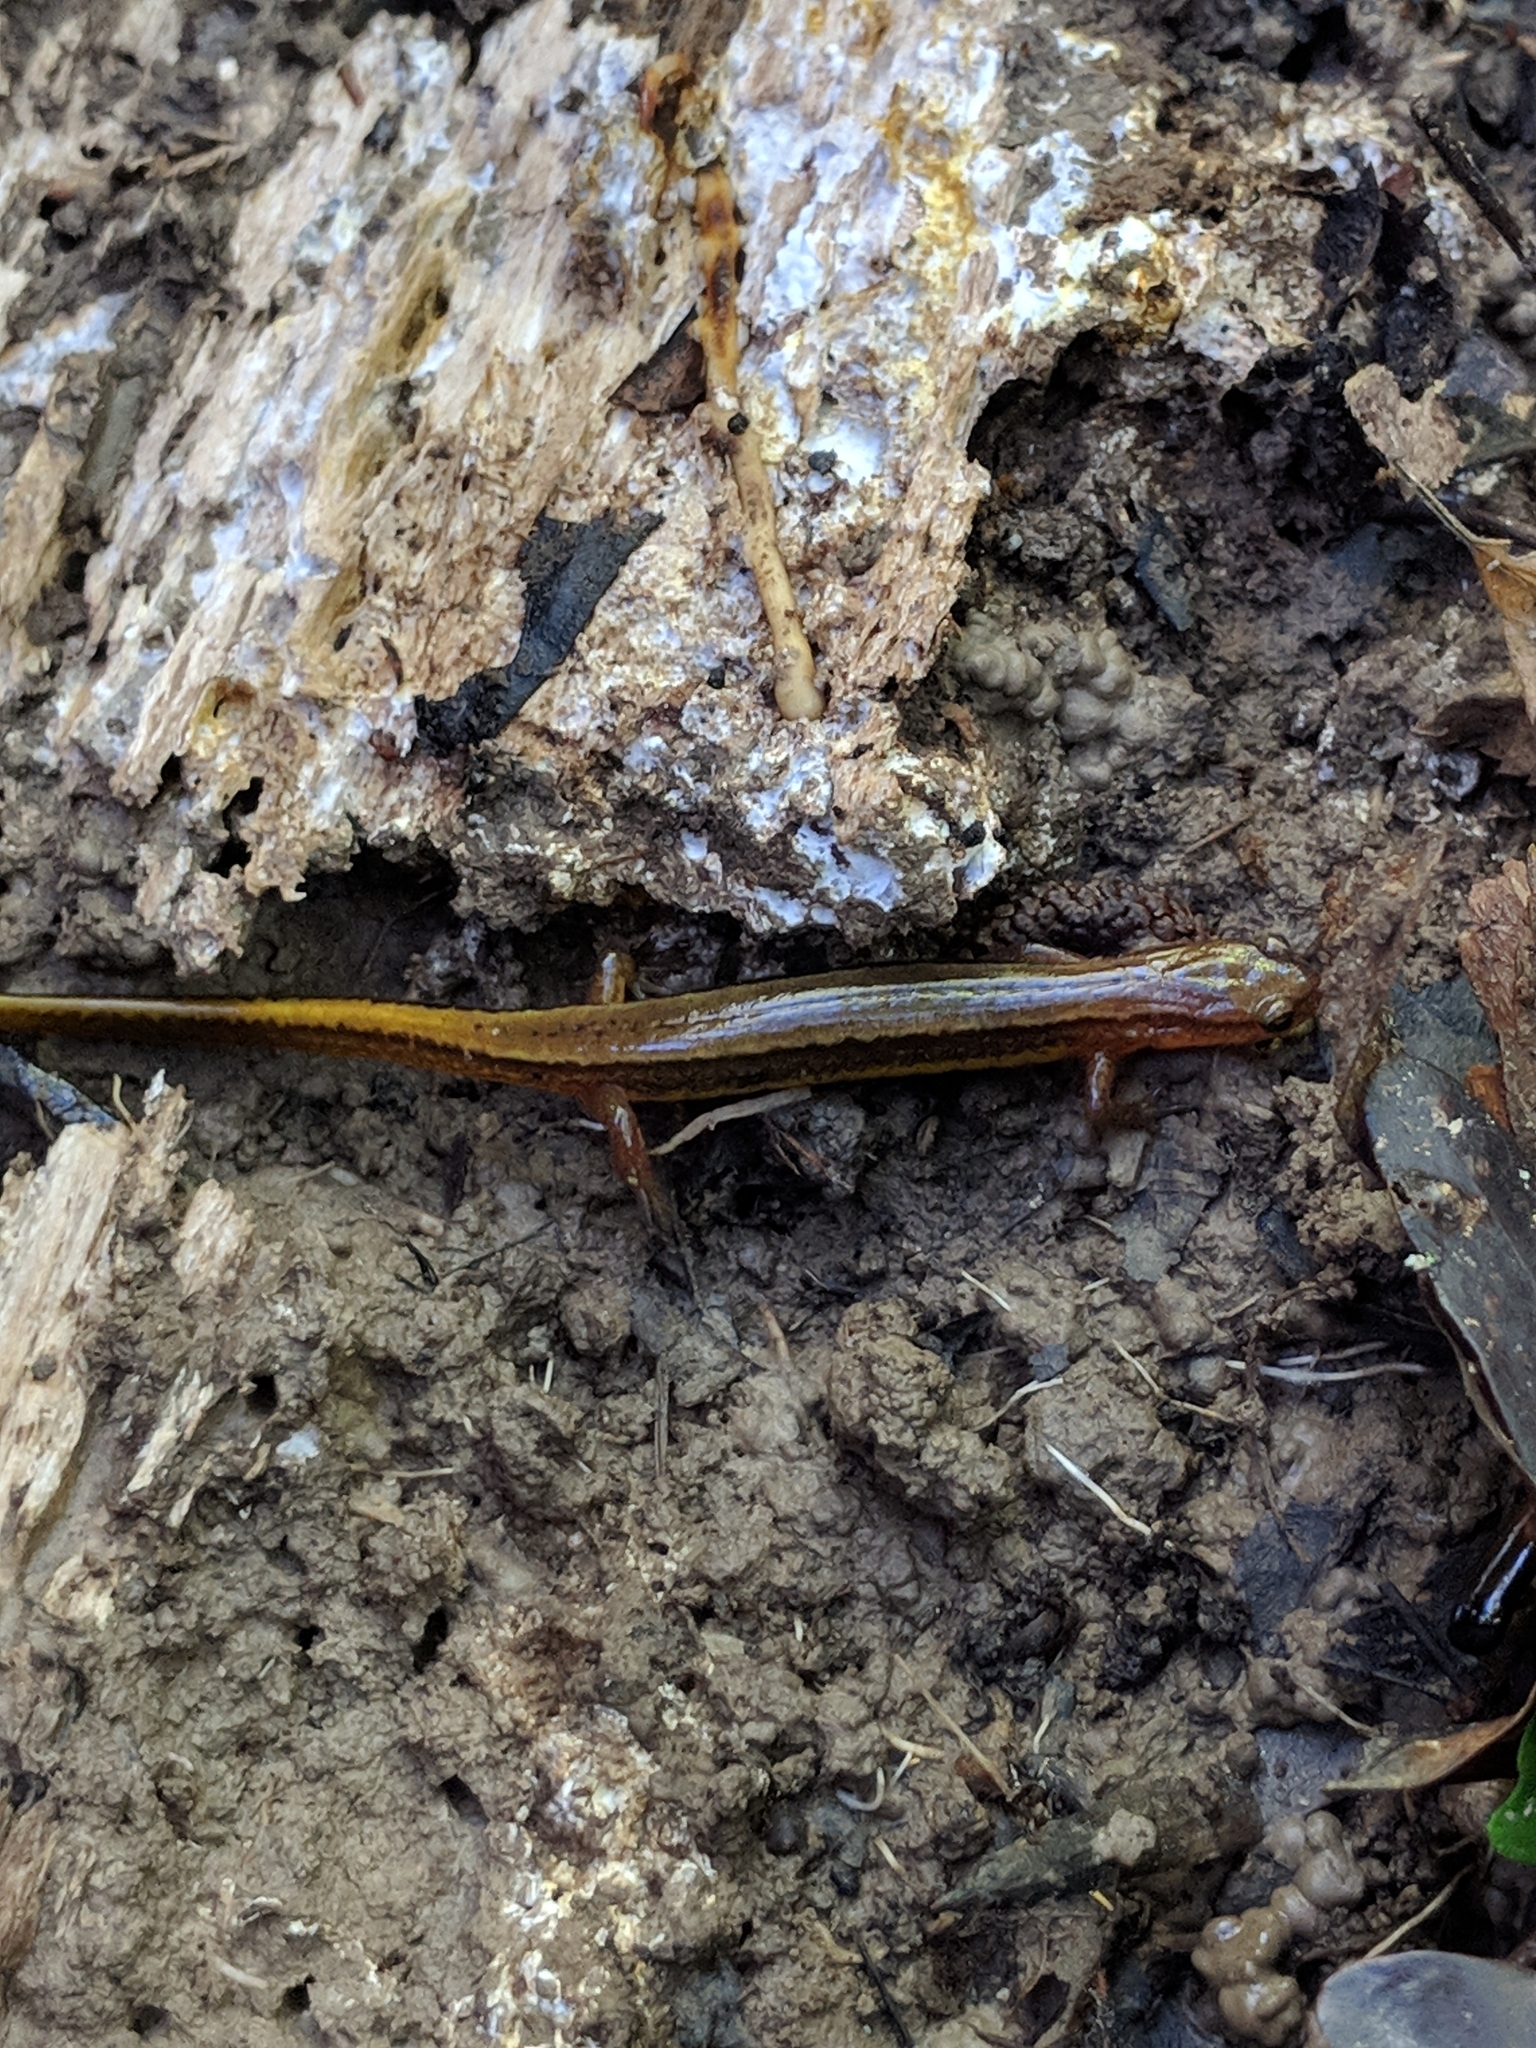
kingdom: Animalia
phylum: Chordata
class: Amphibia
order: Caudata
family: Plethodontidae
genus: Eurycea
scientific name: Eurycea cirrigera
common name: Southern two-lined salamander
